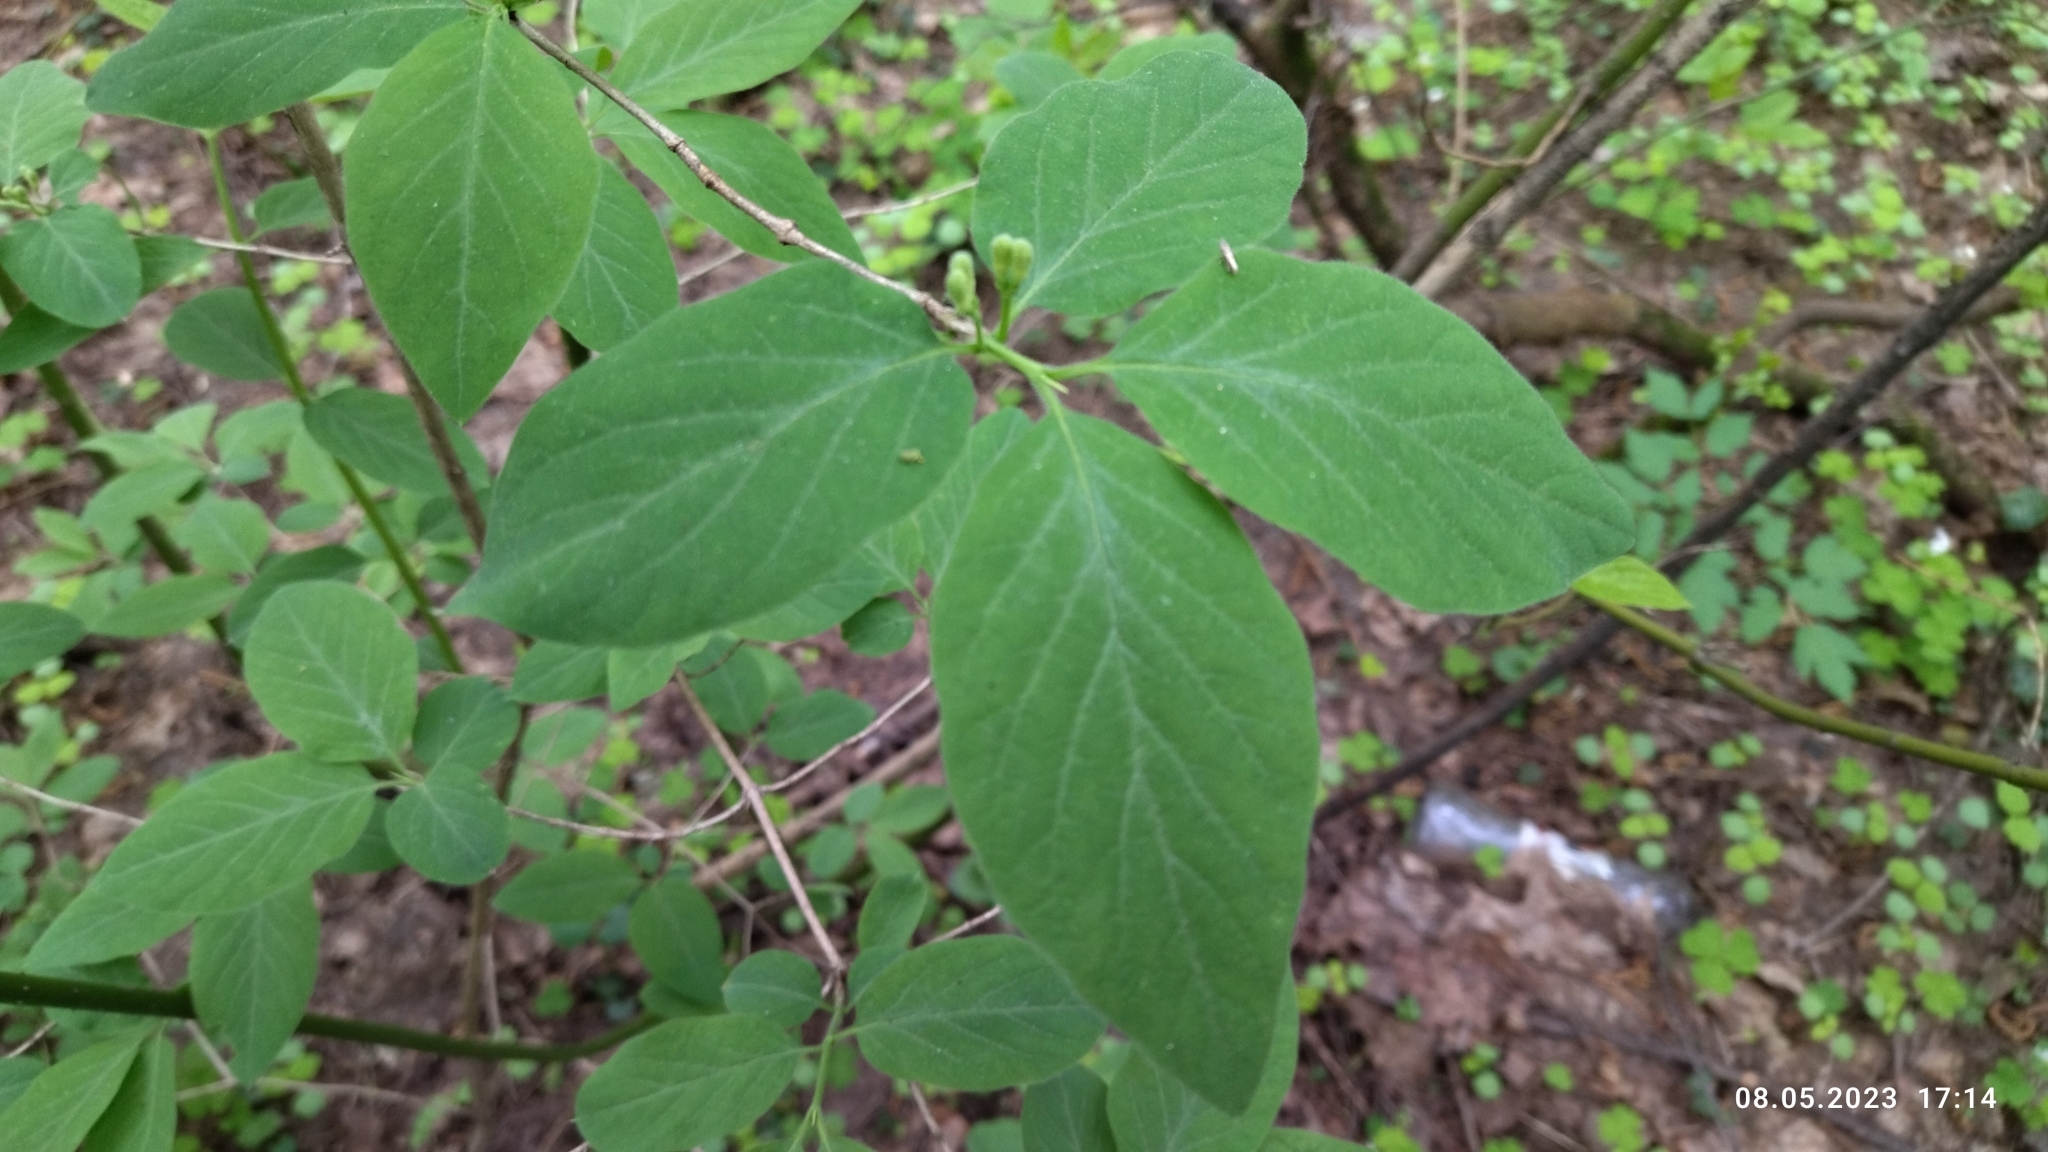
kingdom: Plantae
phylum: Tracheophyta
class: Magnoliopsida
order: Dipsacales
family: Caprifoliaceae
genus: Lonicera
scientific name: Lonicera xylosteum
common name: Fly honeysuckle
